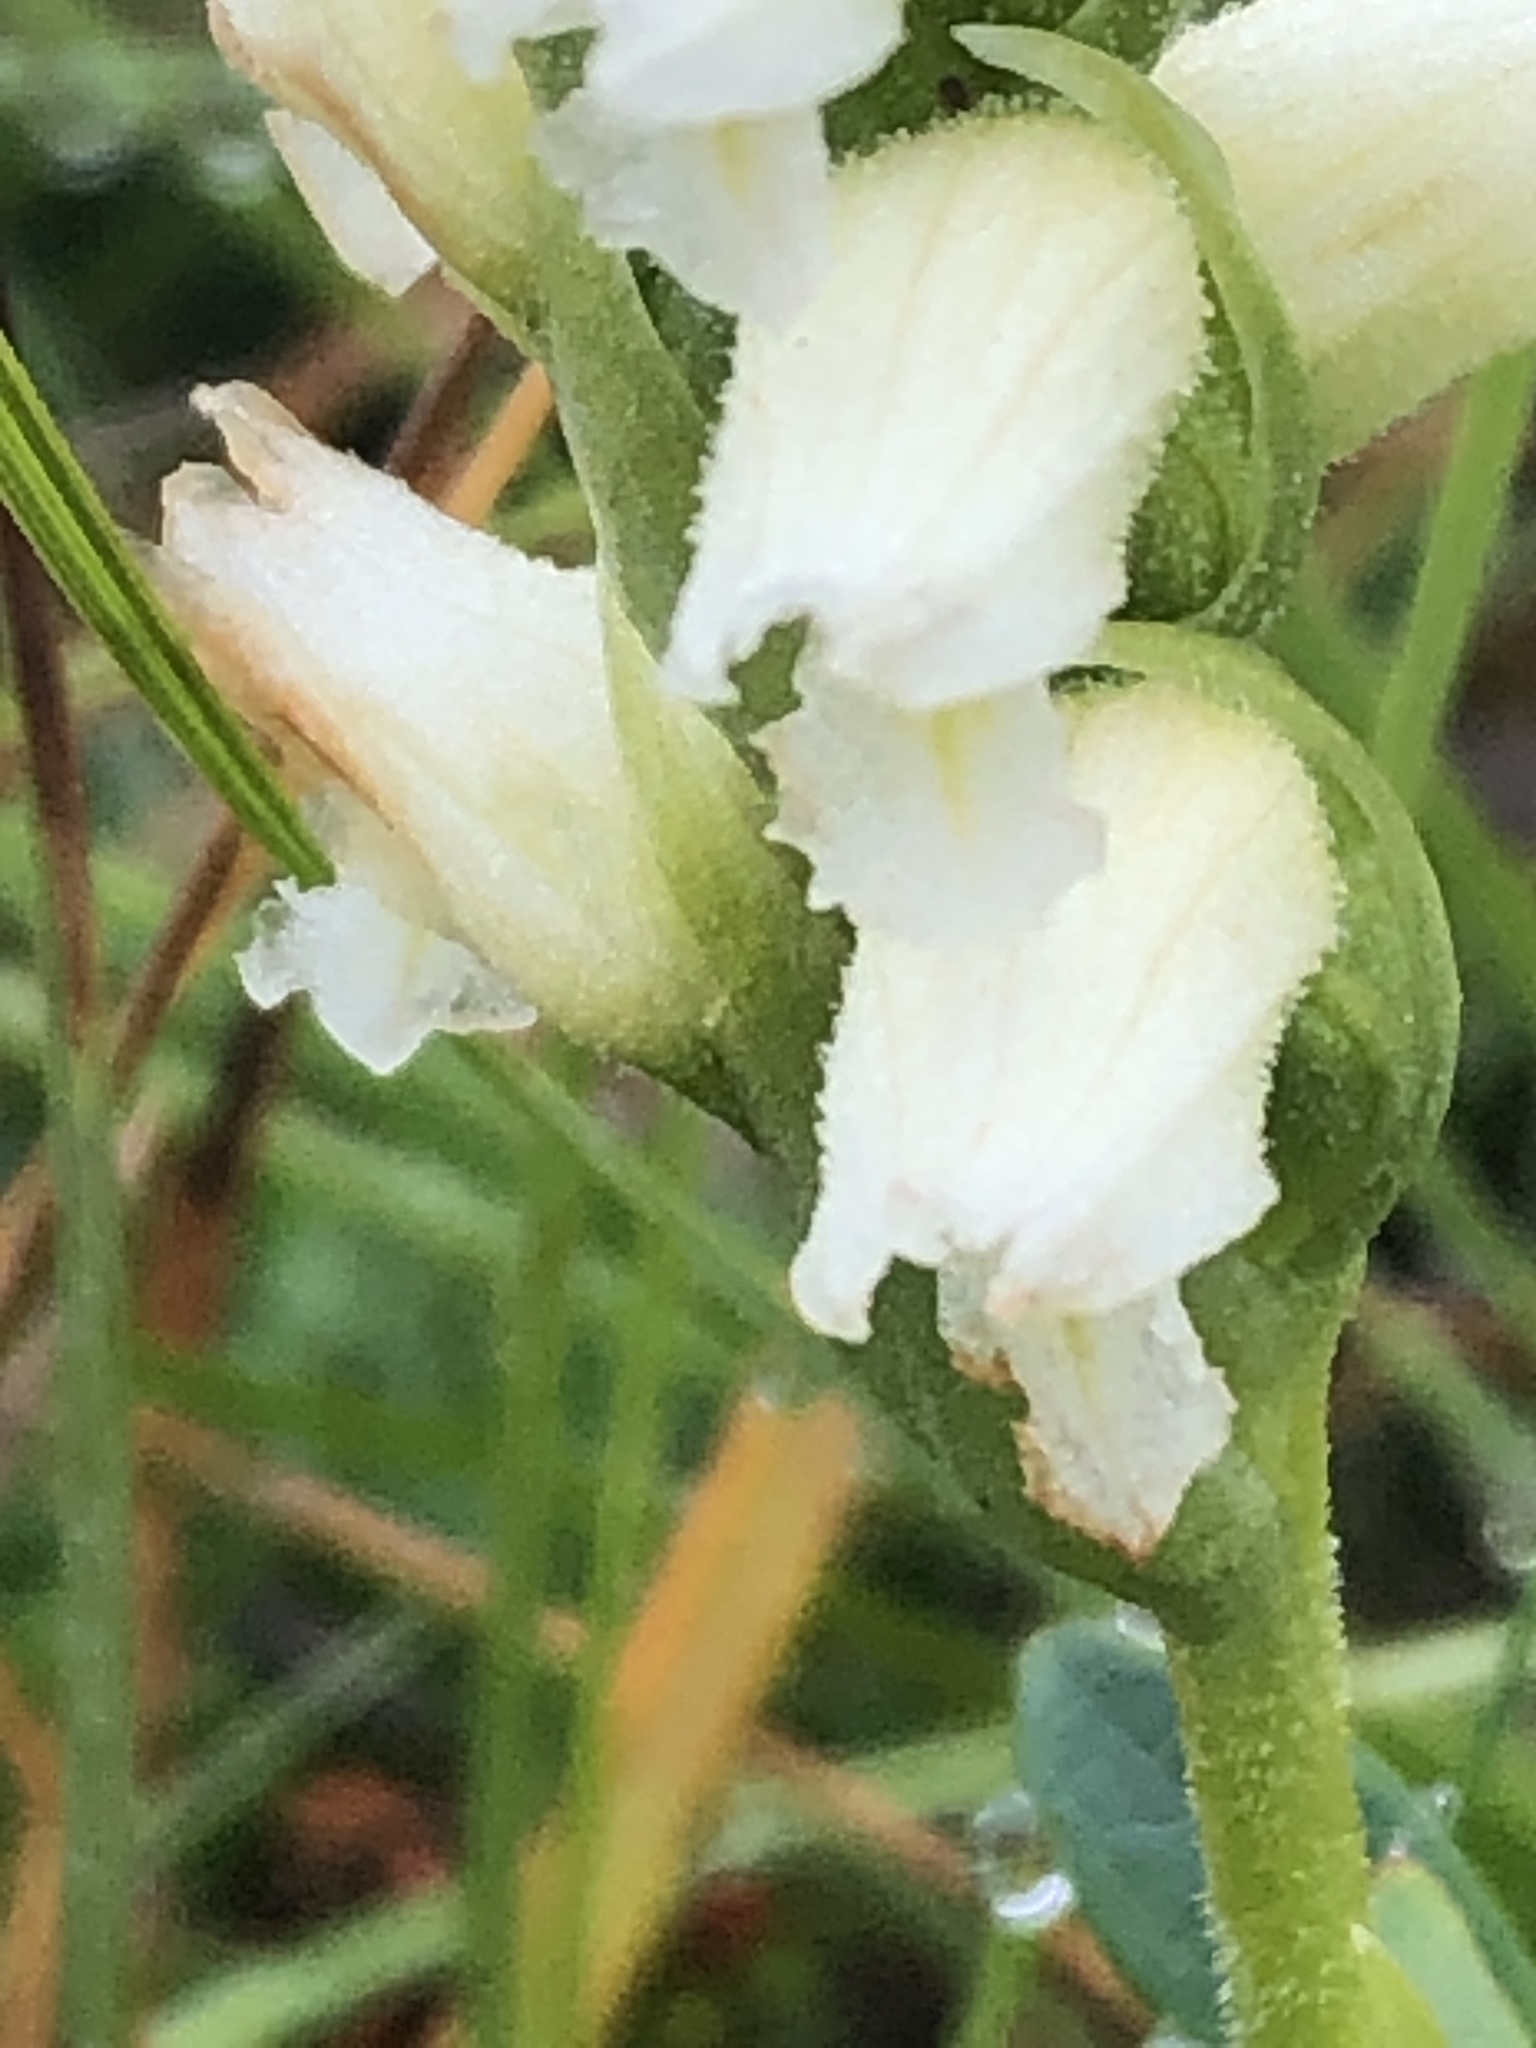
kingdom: Plantae
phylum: Tracheophyta
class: Liliopsida
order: Asparagales
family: Orchidaceae
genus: Spiranthes
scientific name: Spiranthes romanzoffiana
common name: Irish lady's-tresses
